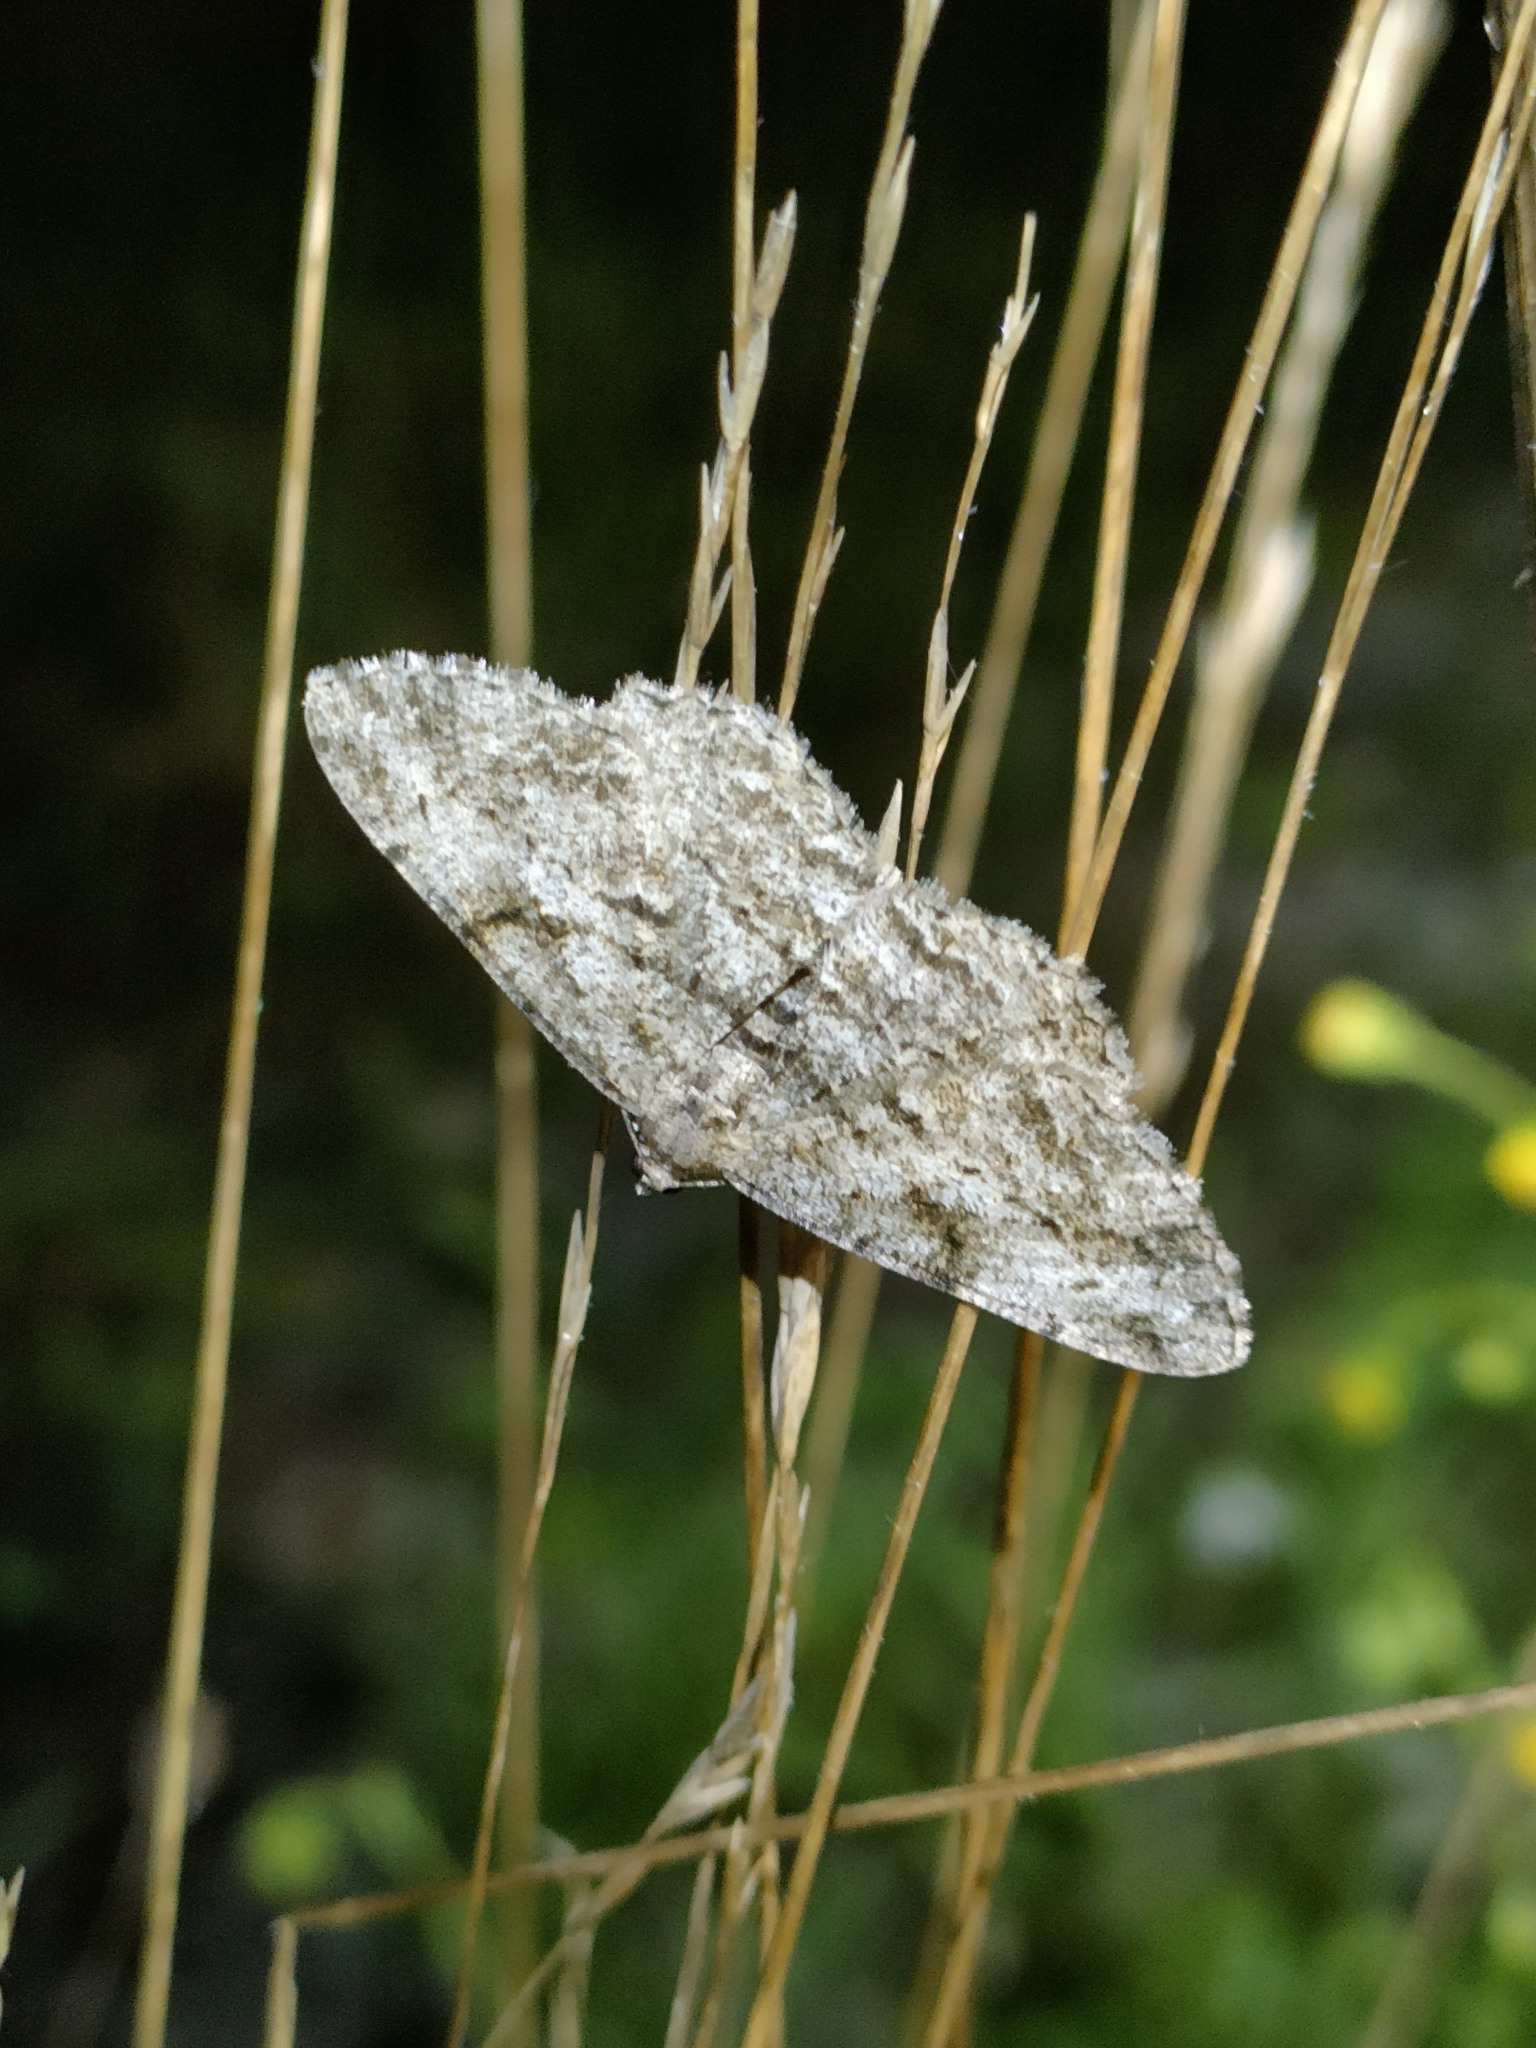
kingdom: Animalia
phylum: Arthropoda
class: Insecta
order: Lepidoptera
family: Geometridae
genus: Peribatodes
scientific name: Peribatodes rhomboidaria
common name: Willow beauty
